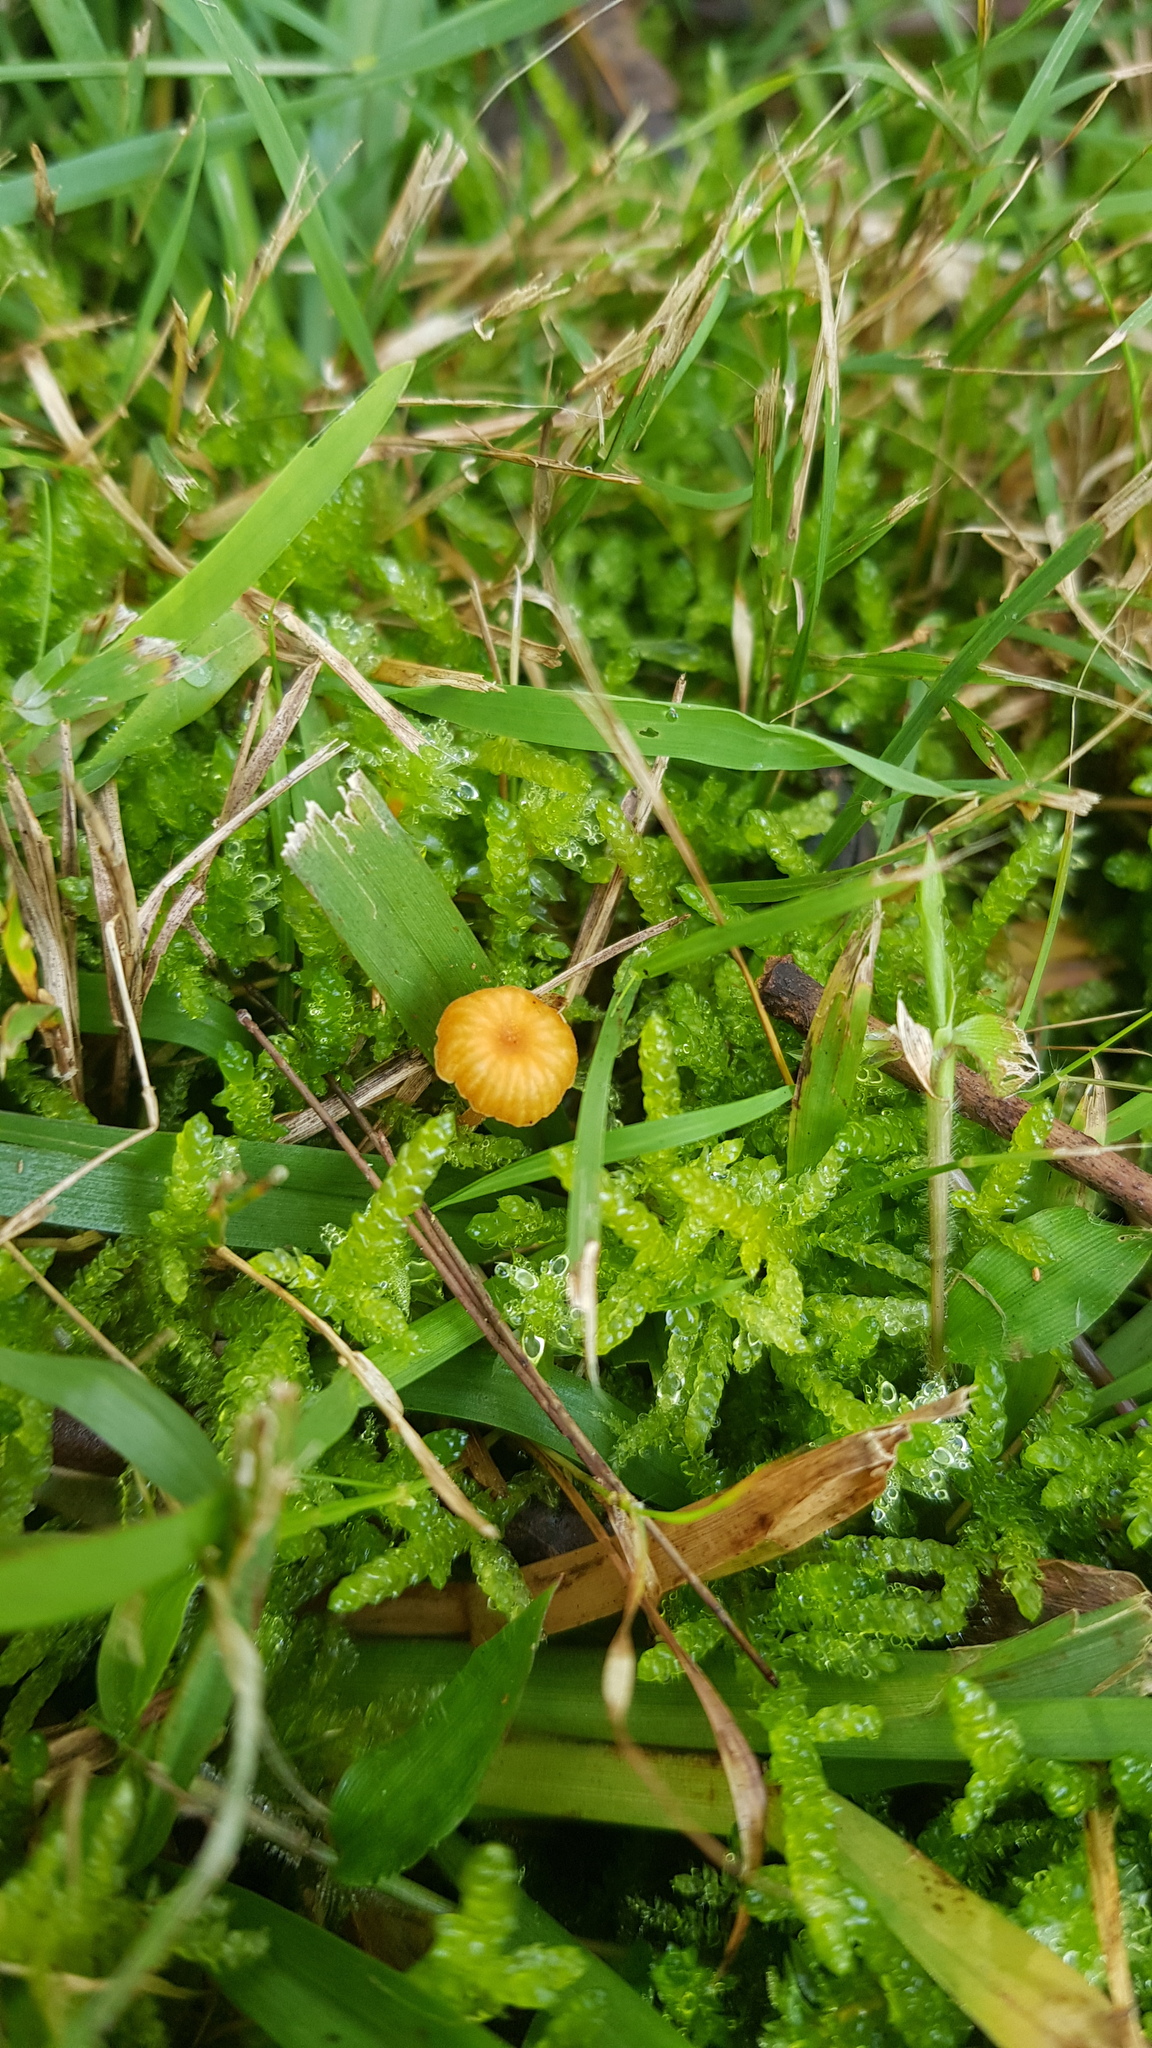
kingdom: Fungi
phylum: Basidiomycota
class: Agaricomycetes
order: Hymenochaetales
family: Rickenellaceae
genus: Rickenella
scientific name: Rickenella fibula
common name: Orange mosscap
